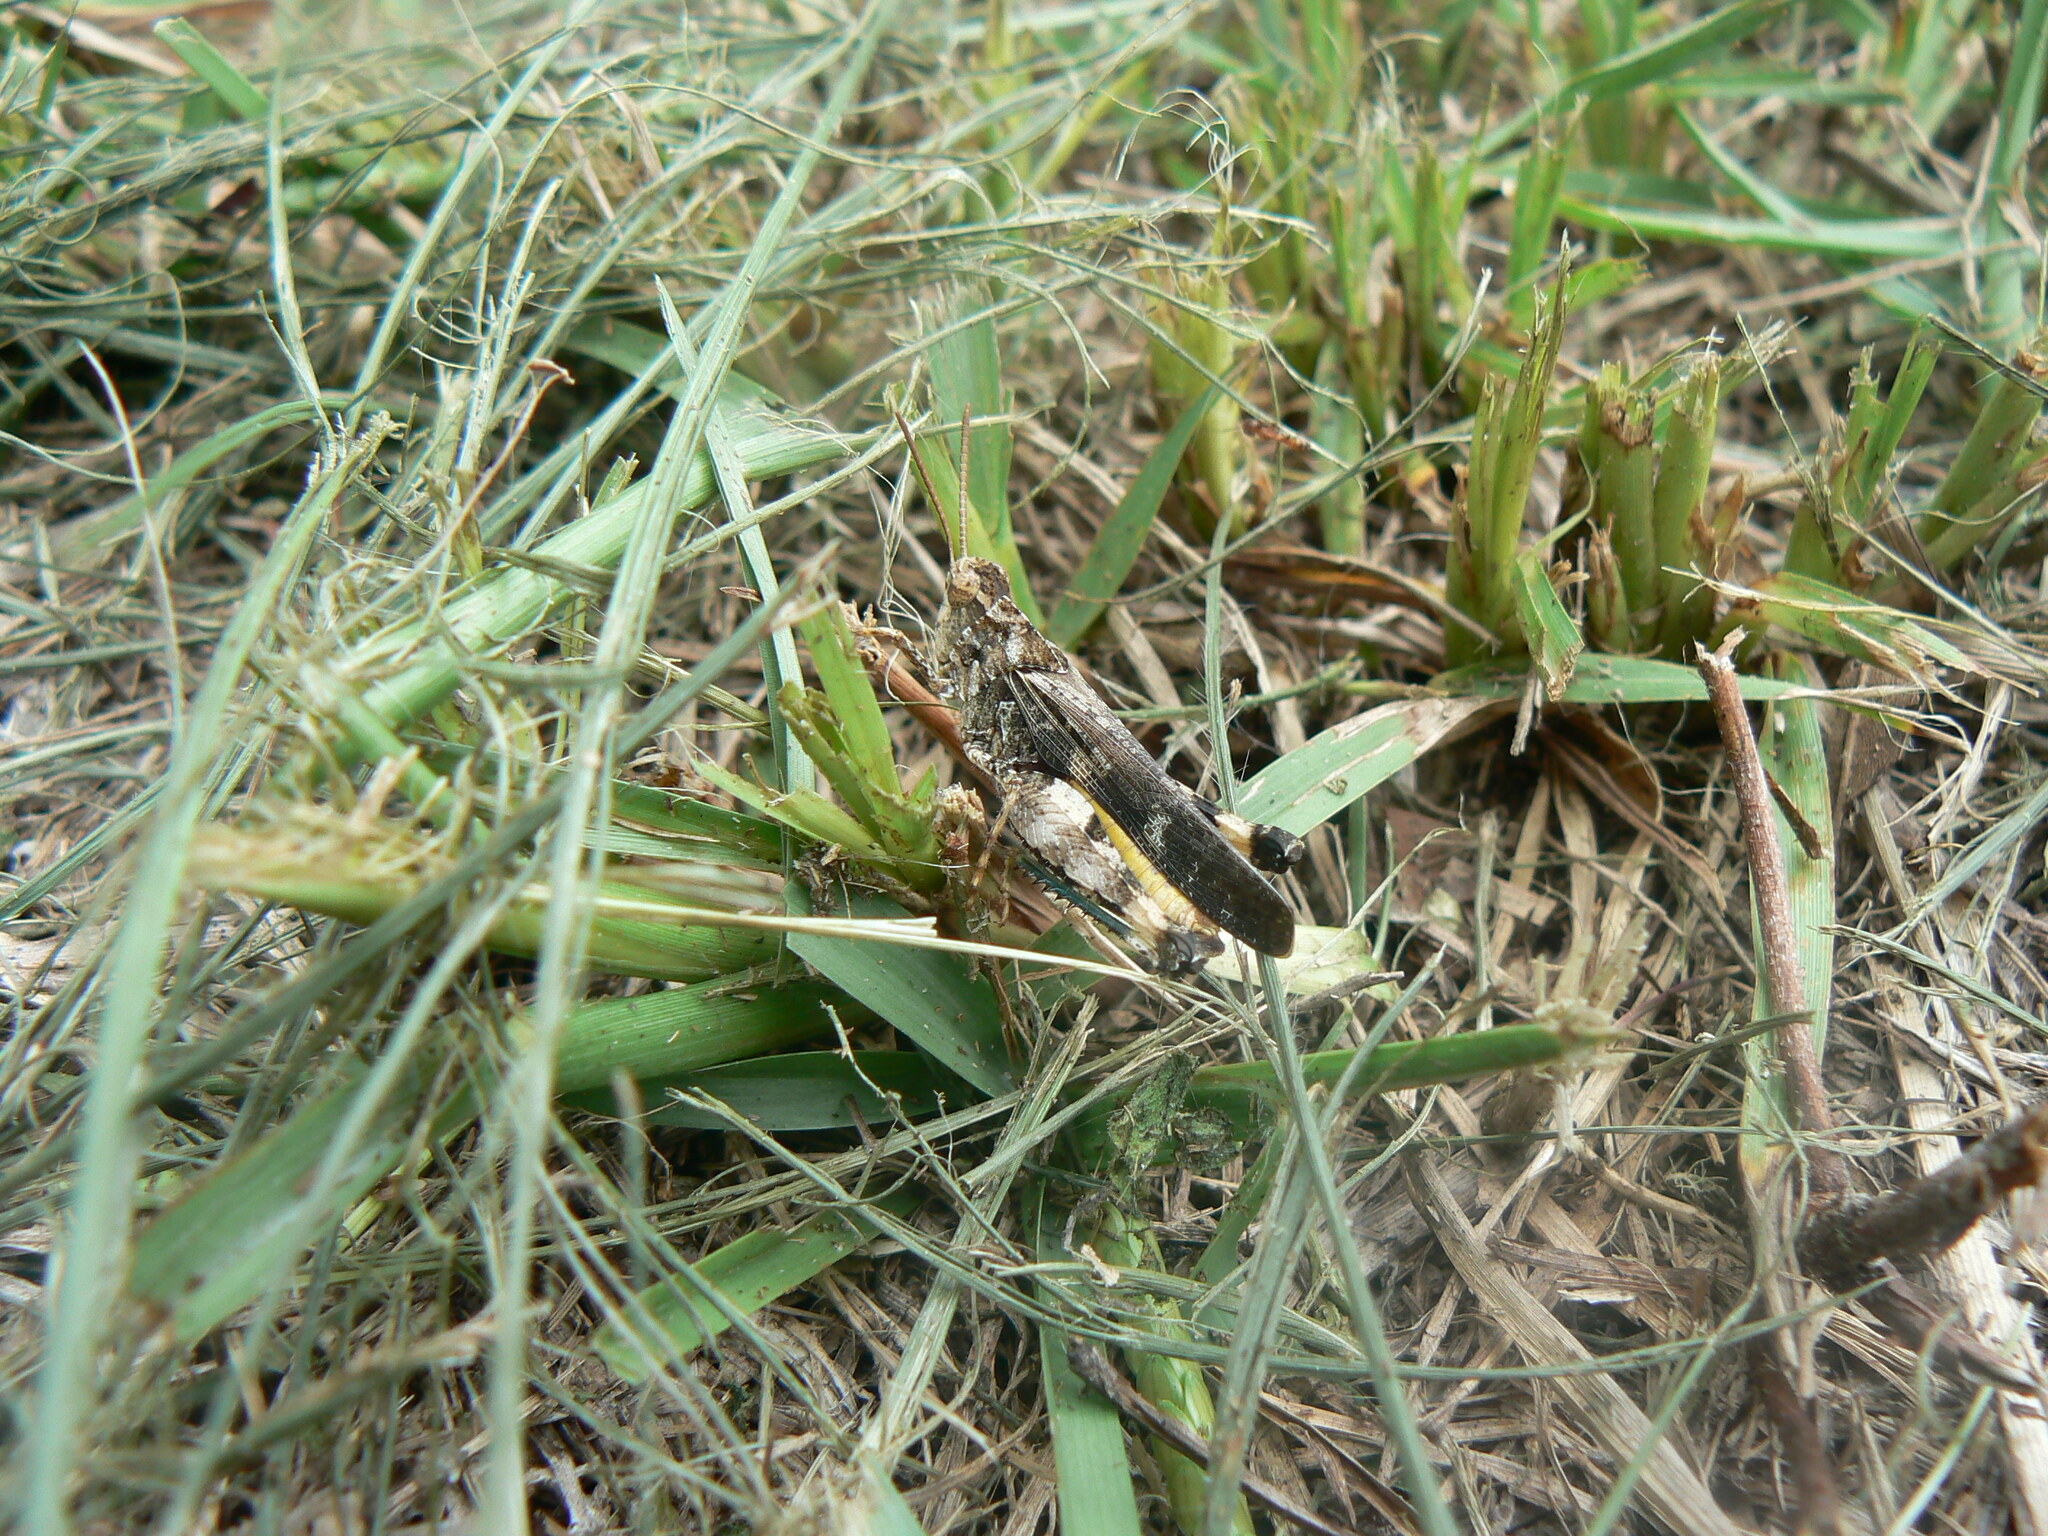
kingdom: Animalia
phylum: Arthropoda
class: Insecta
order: Orthoptera
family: Acrididae
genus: Chortophaga
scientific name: Chortophaga australior
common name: Southern green-striped grasshopper
